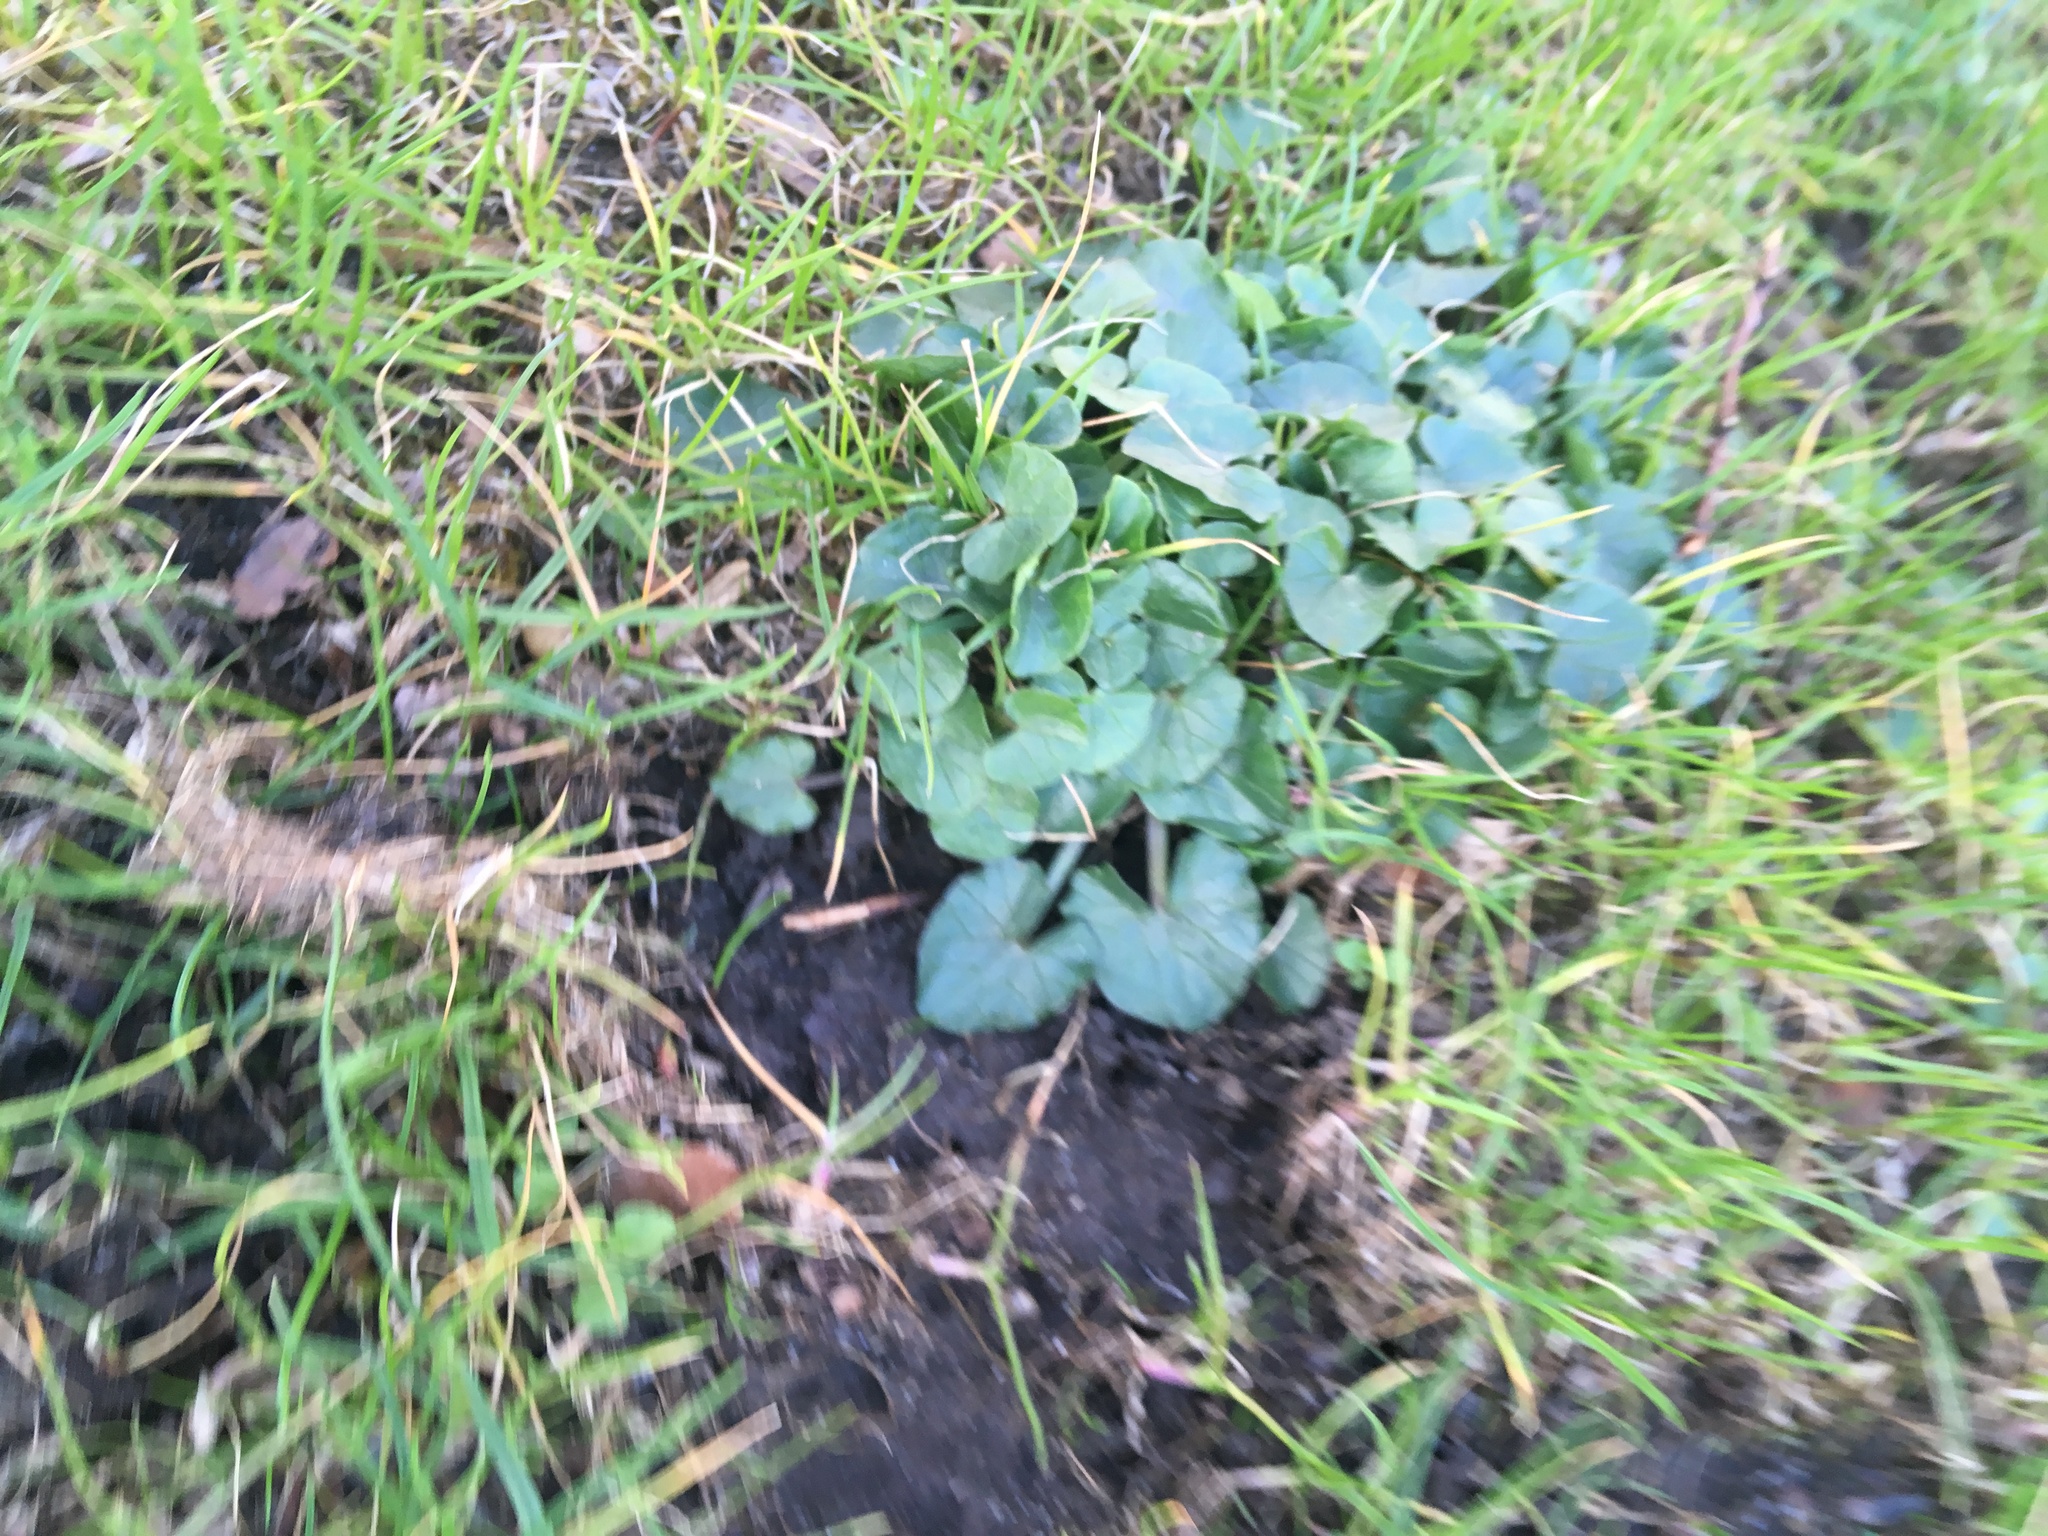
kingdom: Plantae
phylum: Tracheophyta
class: Magnoliopsida
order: Ranunculales
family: Ranunculaceae
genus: Ficaria
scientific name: Ficaria verna
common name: Lesser celandine
